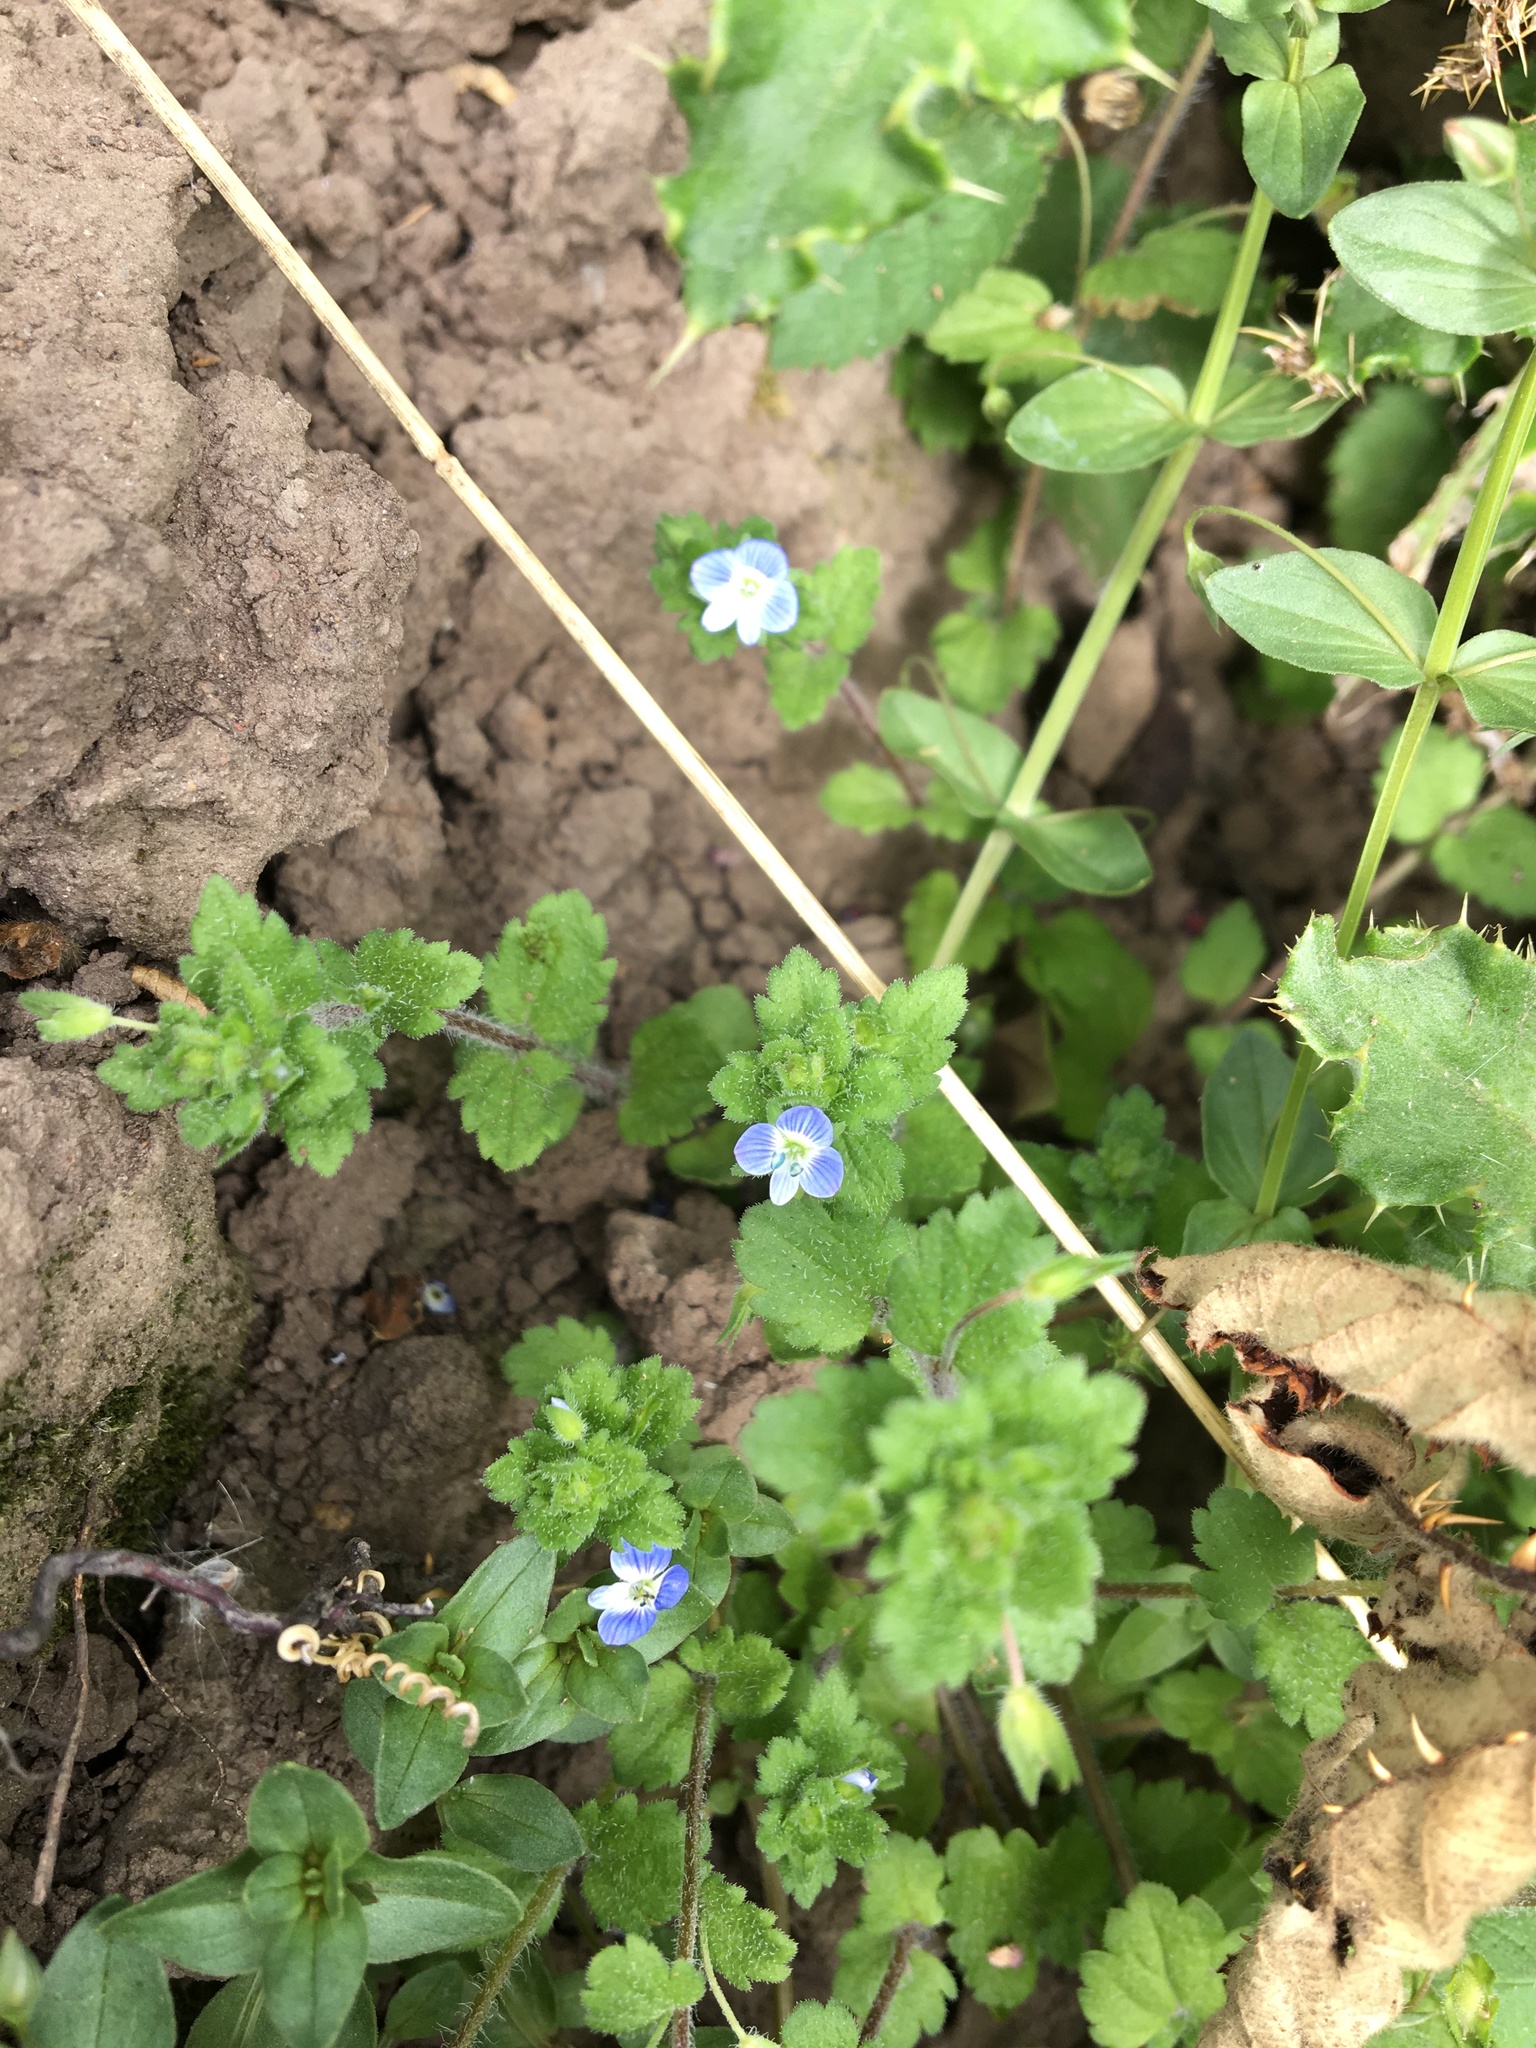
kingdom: Plantae
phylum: Tracheophyta
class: Magnoliopsida
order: Lamiales
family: Plantaginaceae
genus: Veronica
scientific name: Veronica persica
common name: Common field-speedwell
